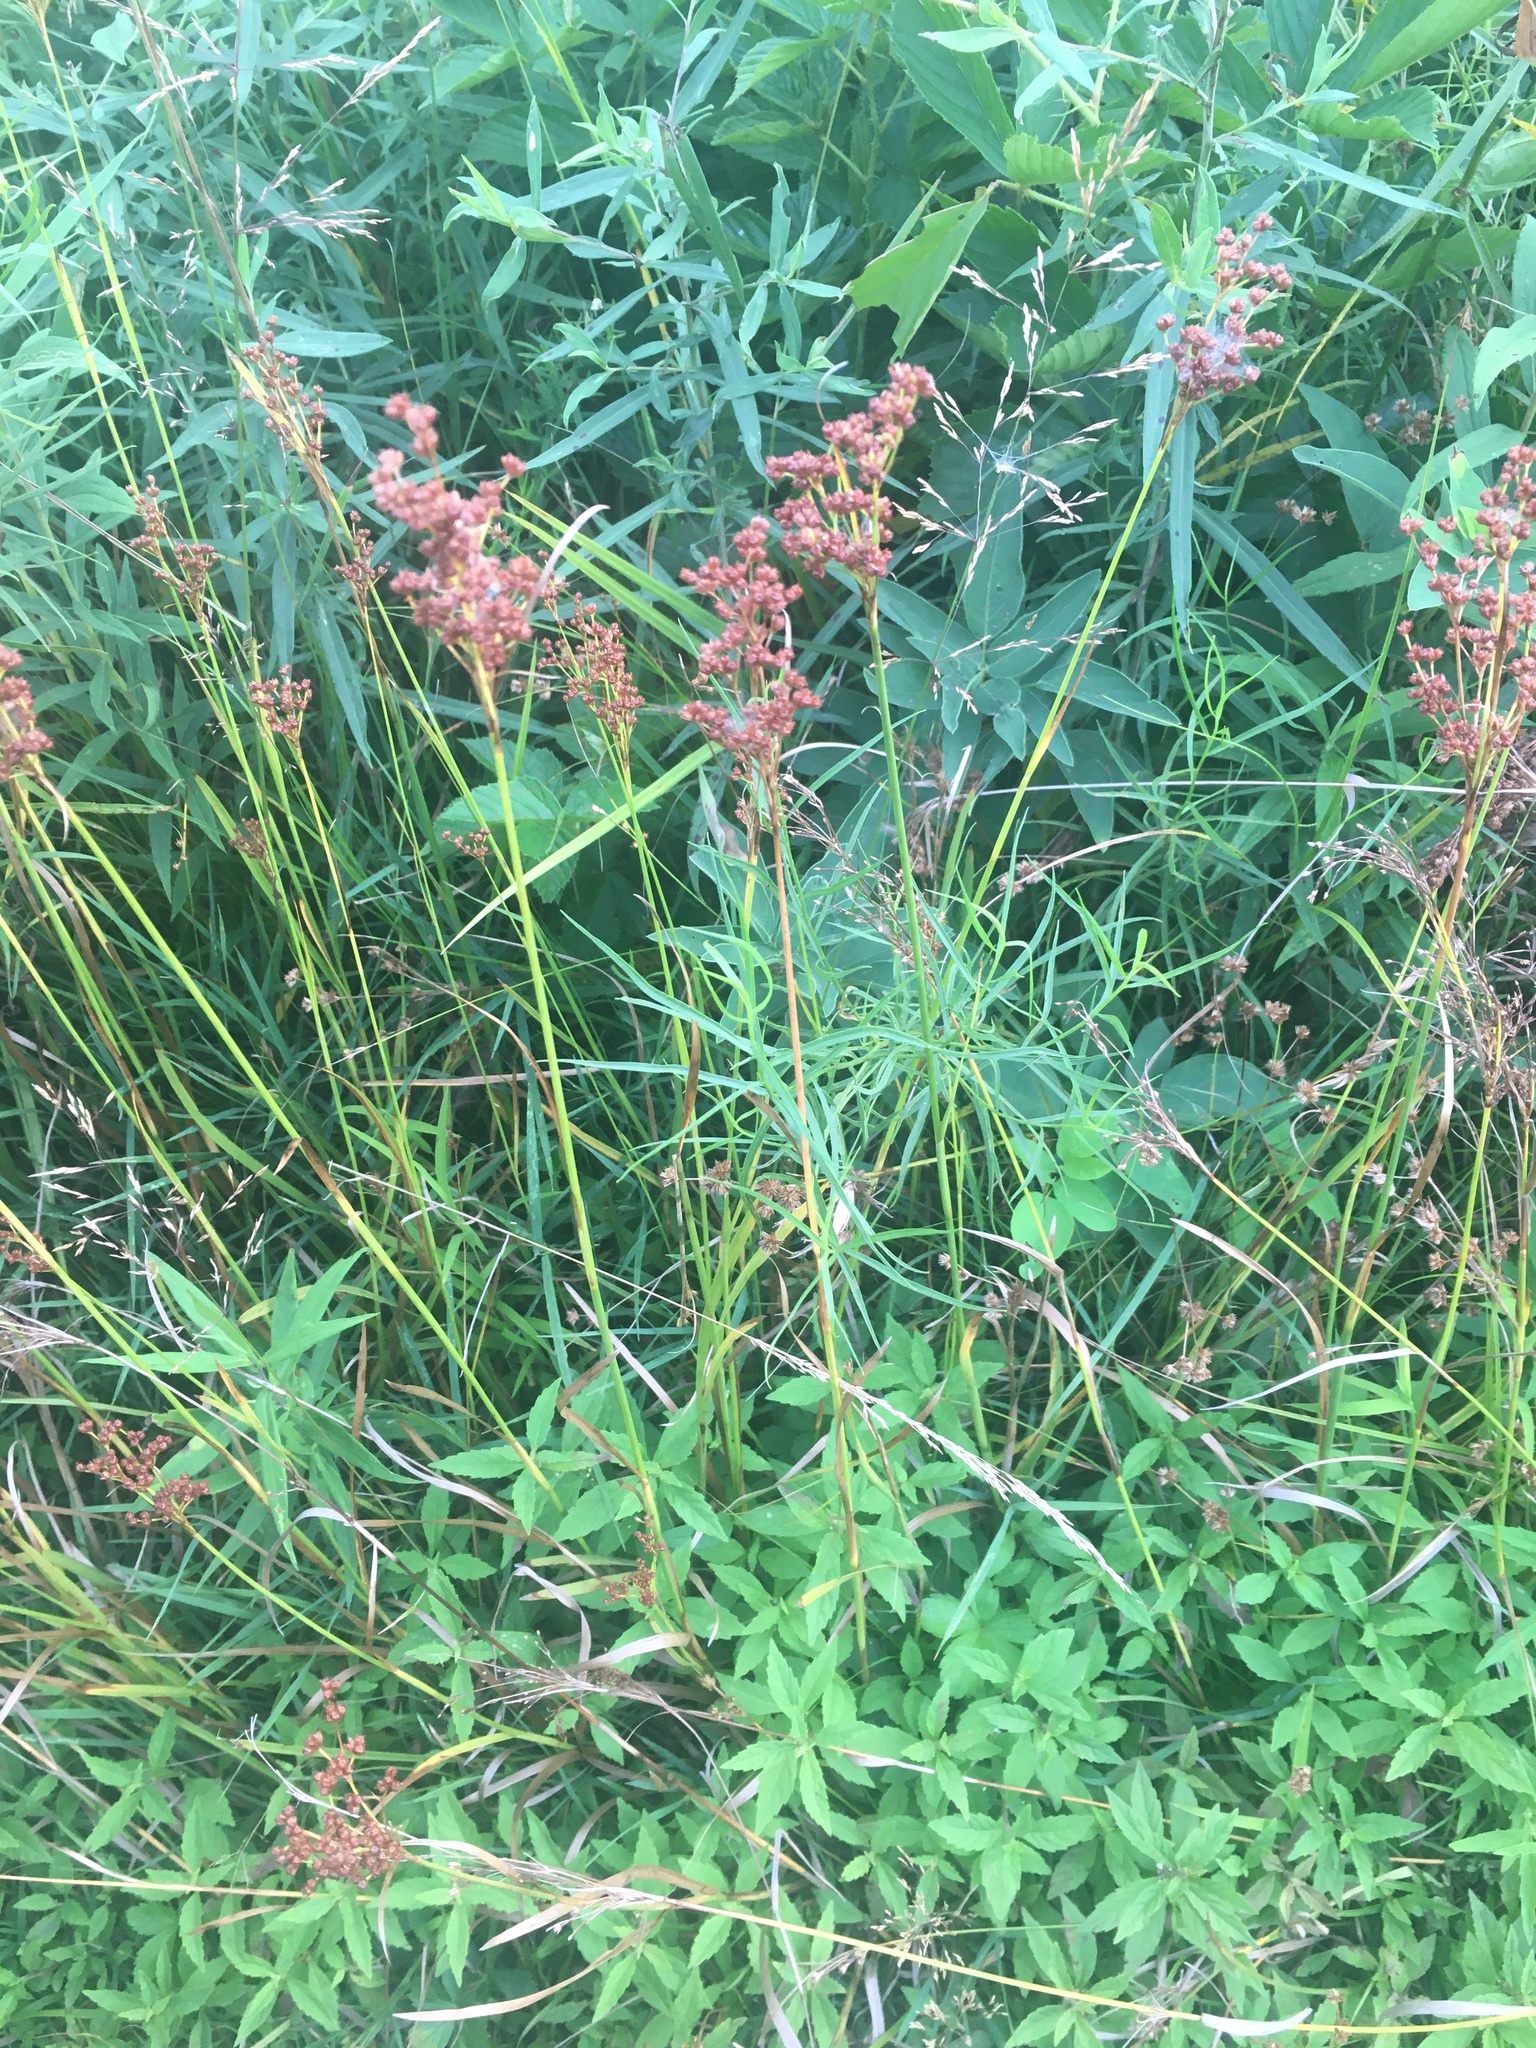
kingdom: Plantae
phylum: Tracheophyta
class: Liliopsida
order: Poales
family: Juncaceae
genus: Juncus
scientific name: Juncus biflorus
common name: Two-flowered rush
